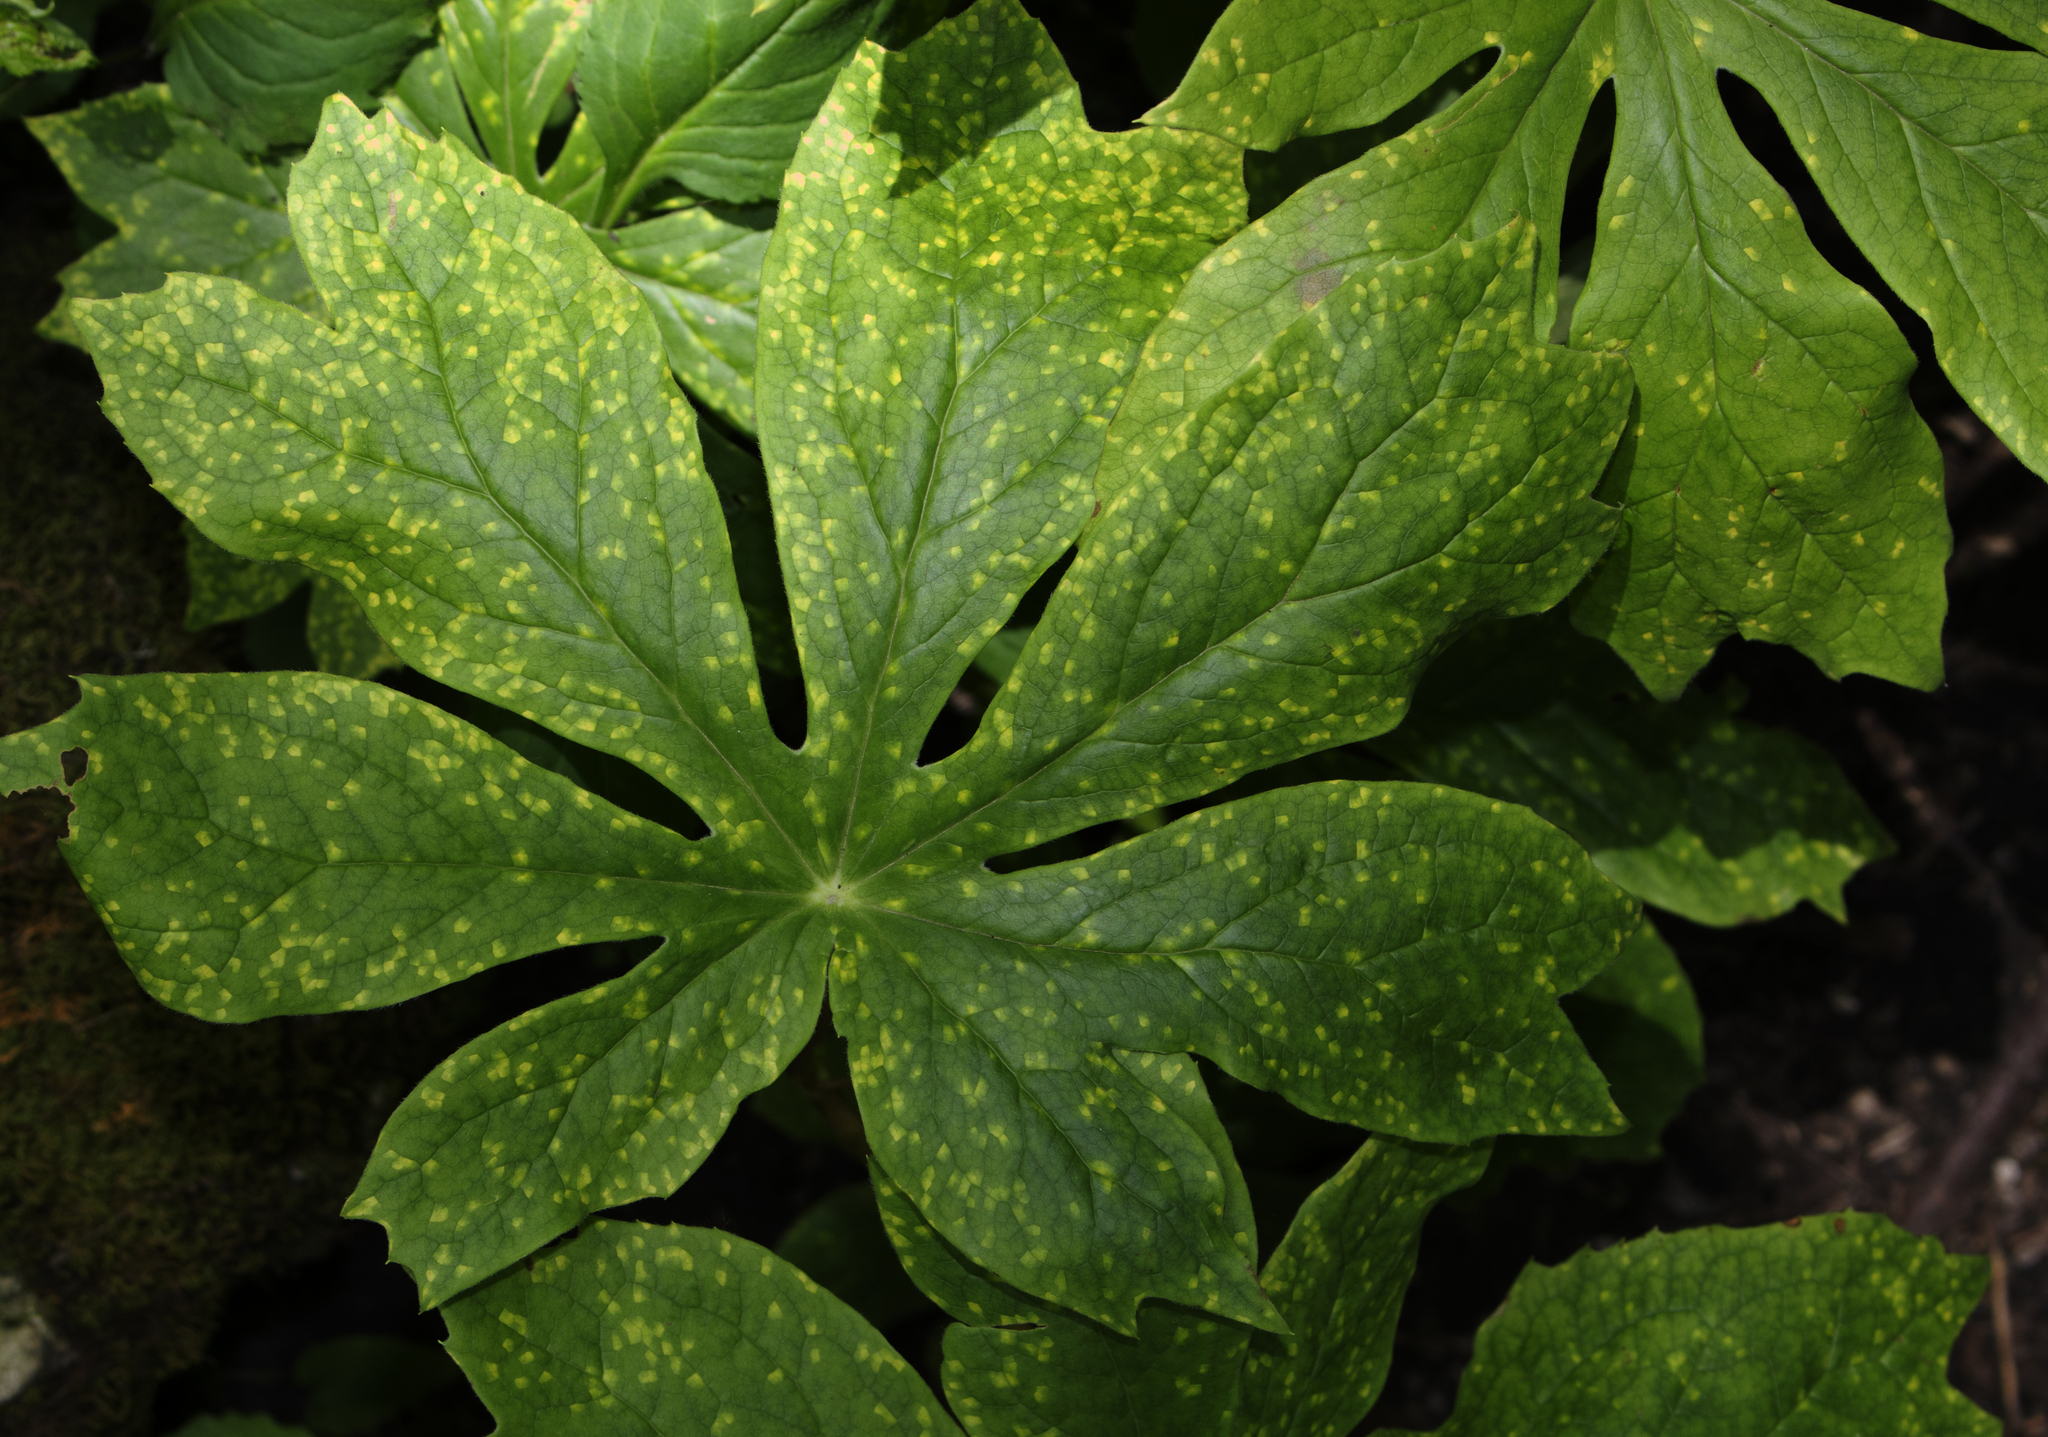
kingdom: Plantae
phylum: Tracheophyta
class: Magnoliopsida
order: Ranunculales
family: Berberidaceae
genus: Podophyllum
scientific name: Podophyllum peltatum
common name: Wild mandrake
